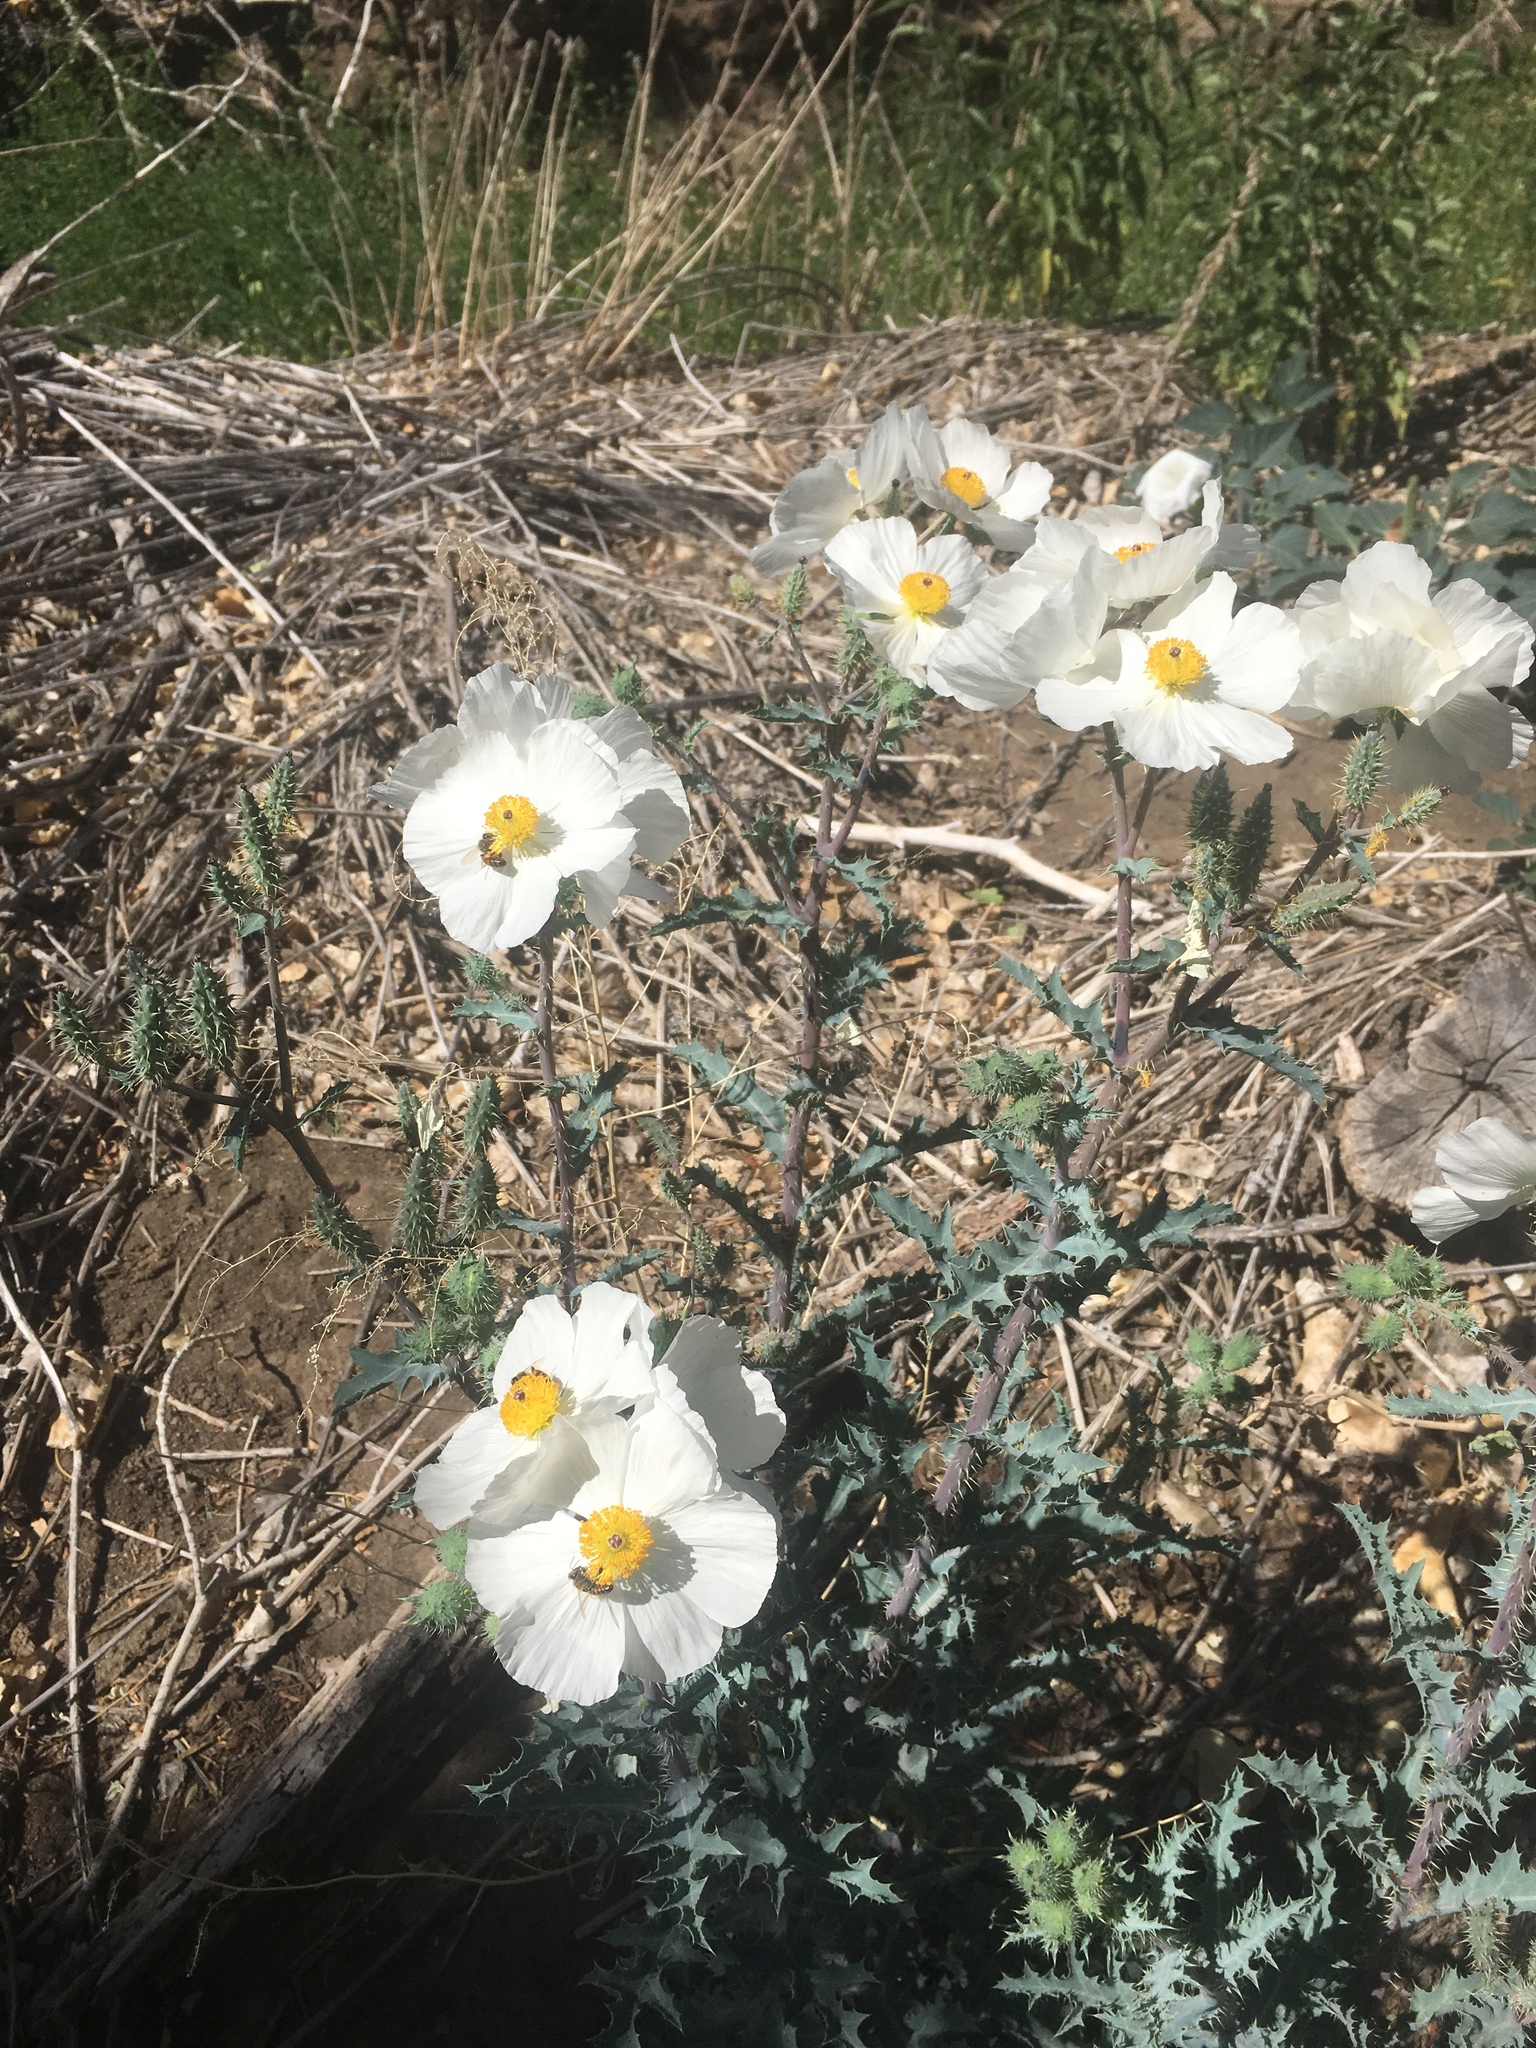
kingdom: Plantae
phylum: Tracheophyta
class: Magnoliopsida
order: Ranunculales
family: Papaveraceae
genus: Argemone
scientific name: Argemone munita
